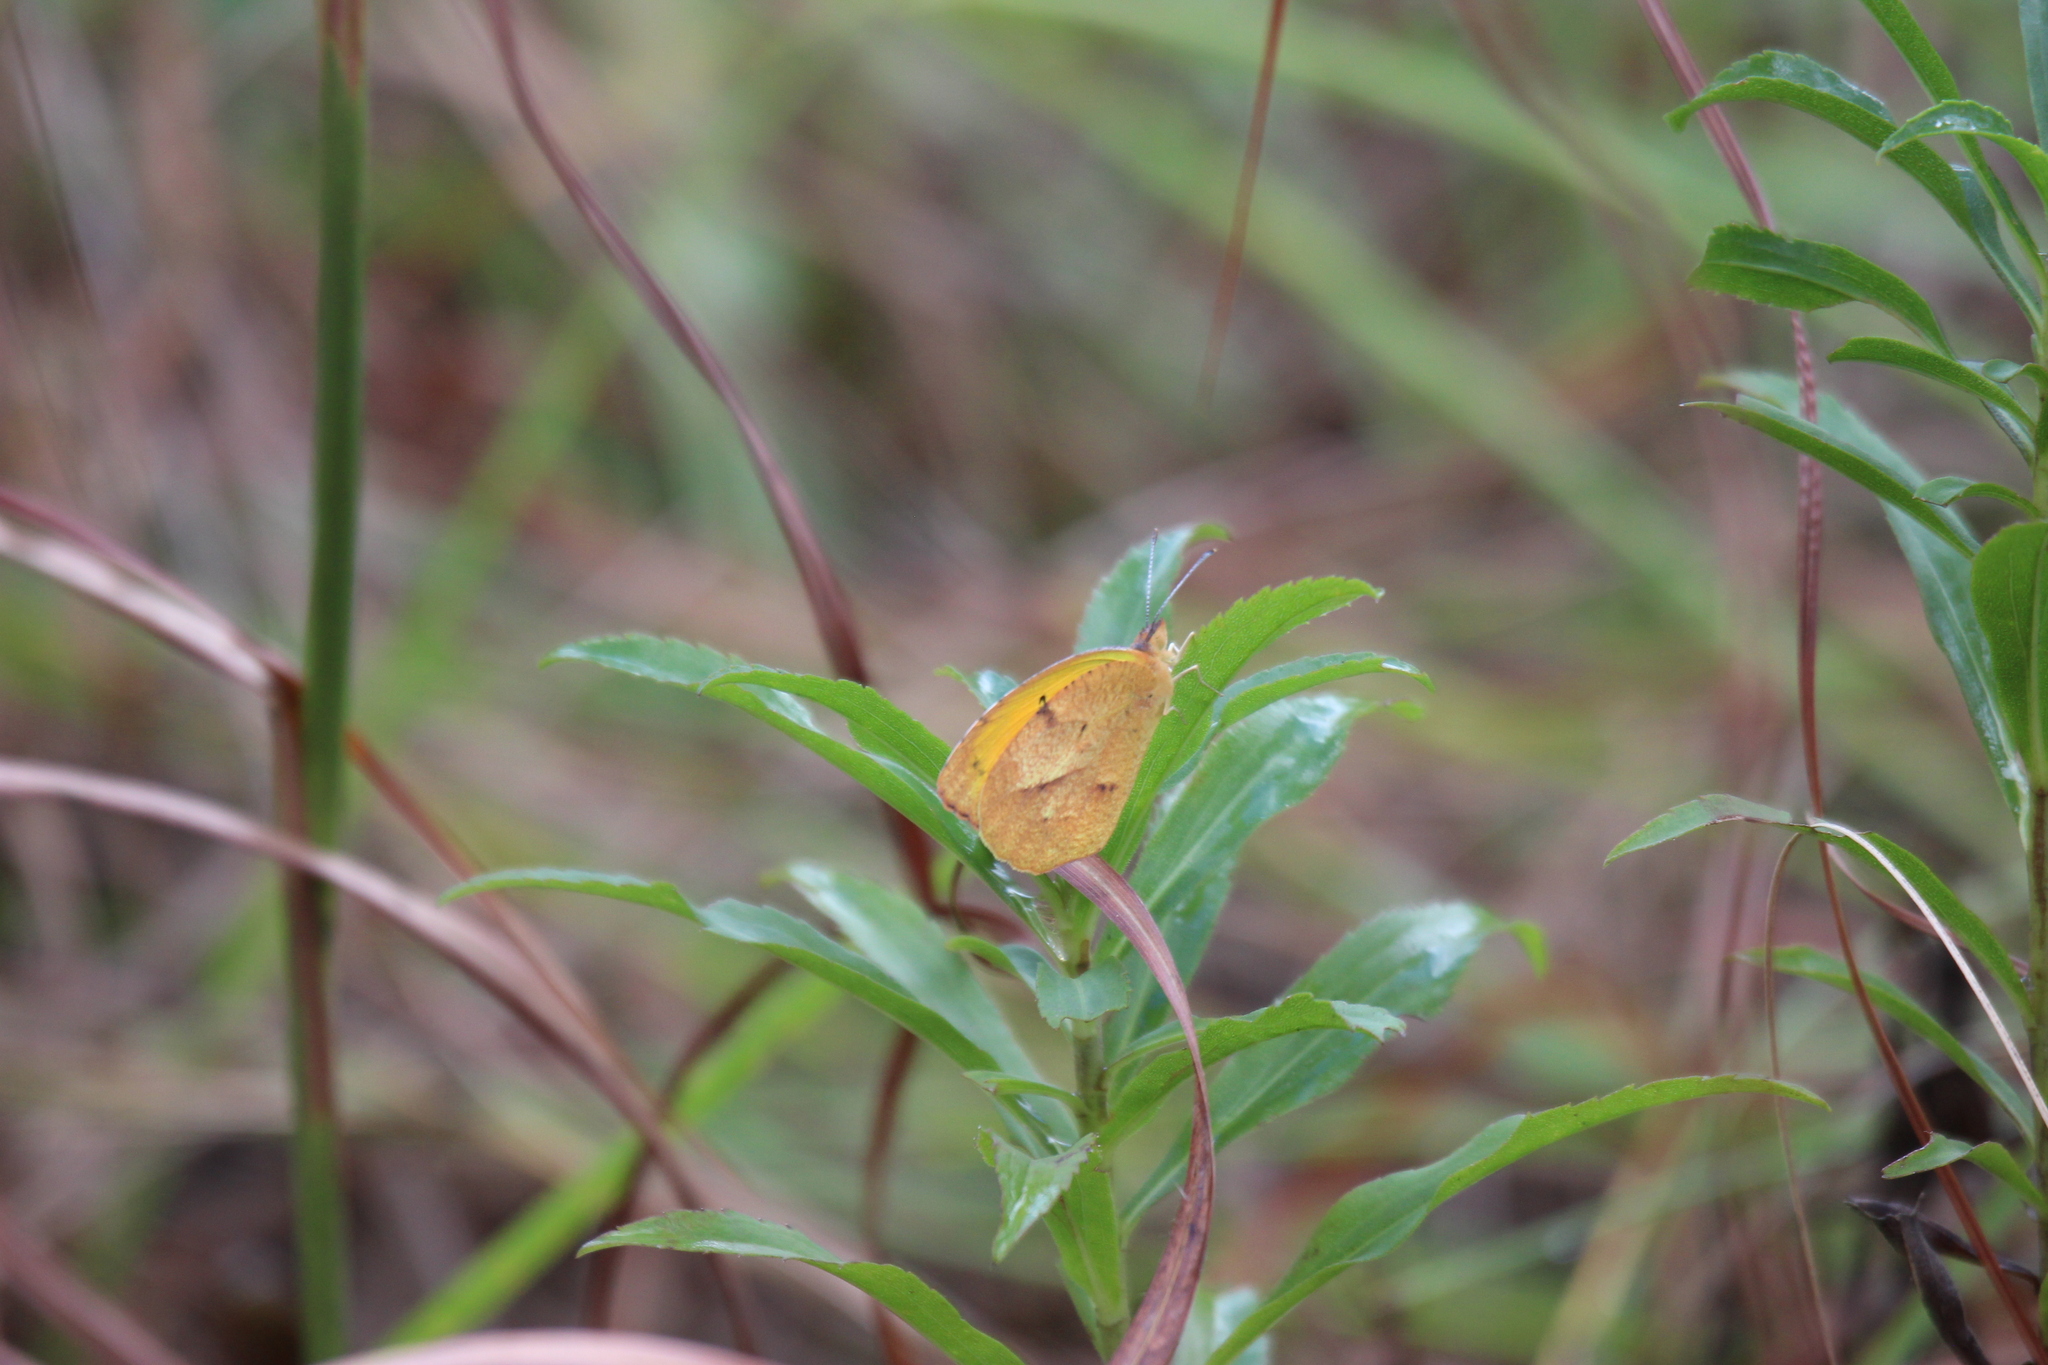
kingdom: Animalia
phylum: Arthropoda
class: Insecta
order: Lepidoptera
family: Pieridae
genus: Abaeis
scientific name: Abaeis nicippe
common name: Sleepy orange
